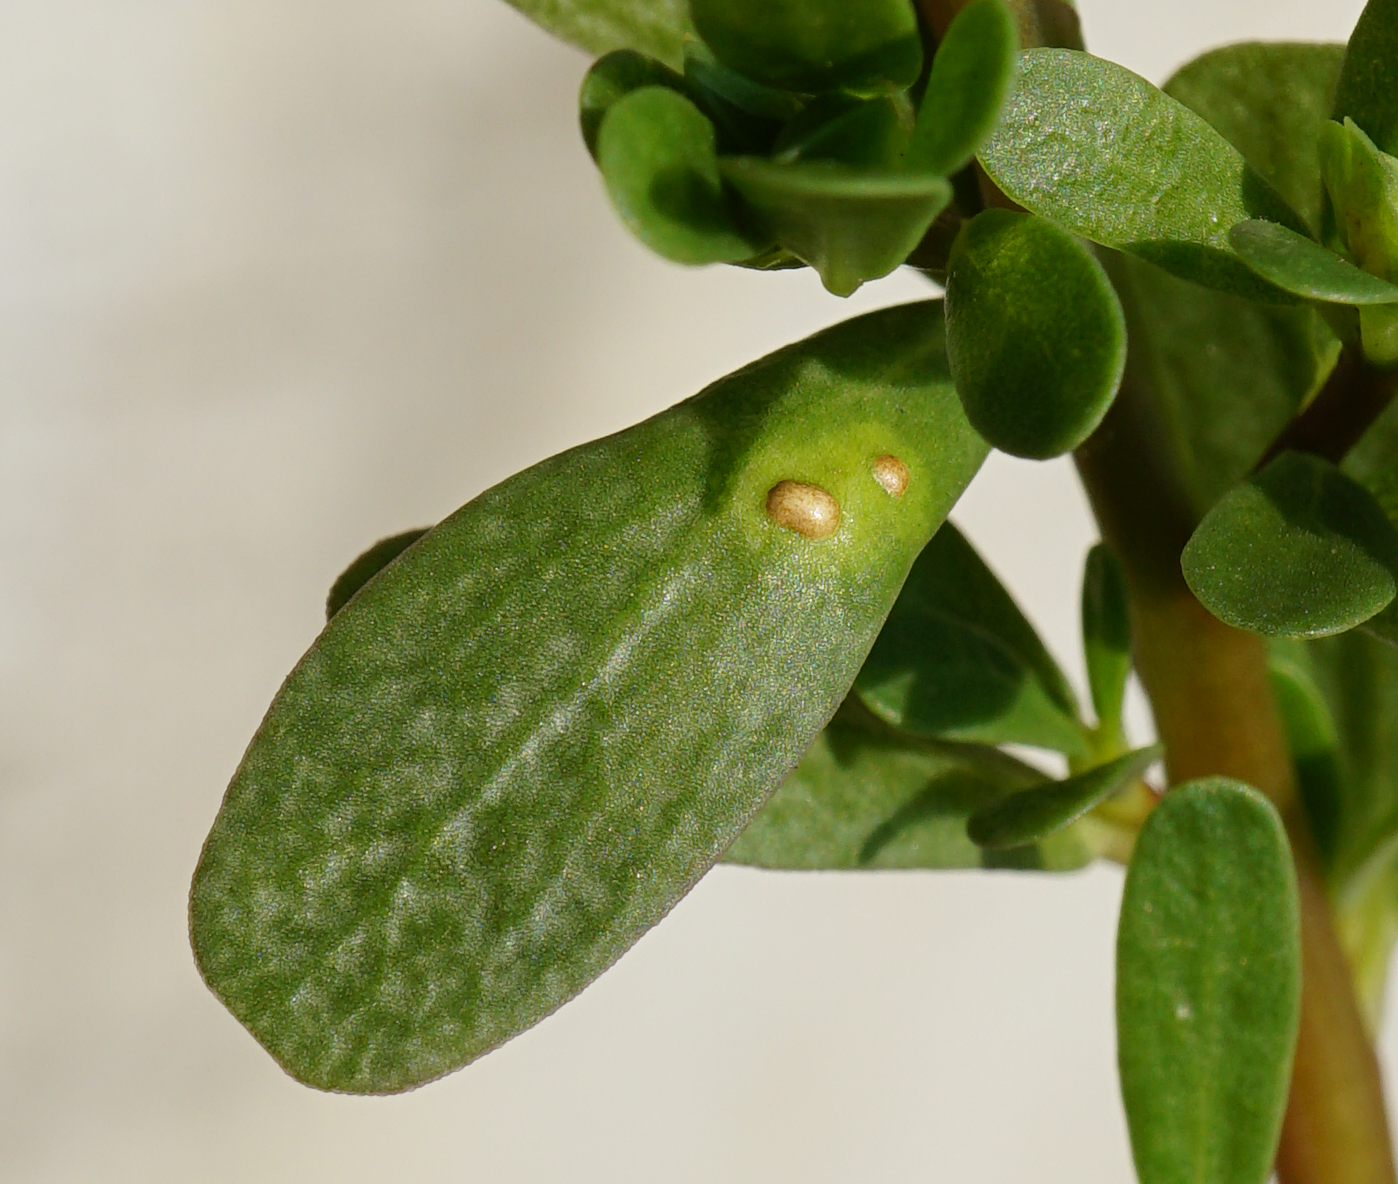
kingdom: Chromista
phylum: Oomycota
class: Peronosporea
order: Albuginales
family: Albuginaceae
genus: Wilsoniana
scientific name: Wilsoniana portulacae
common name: Purslane white rust
